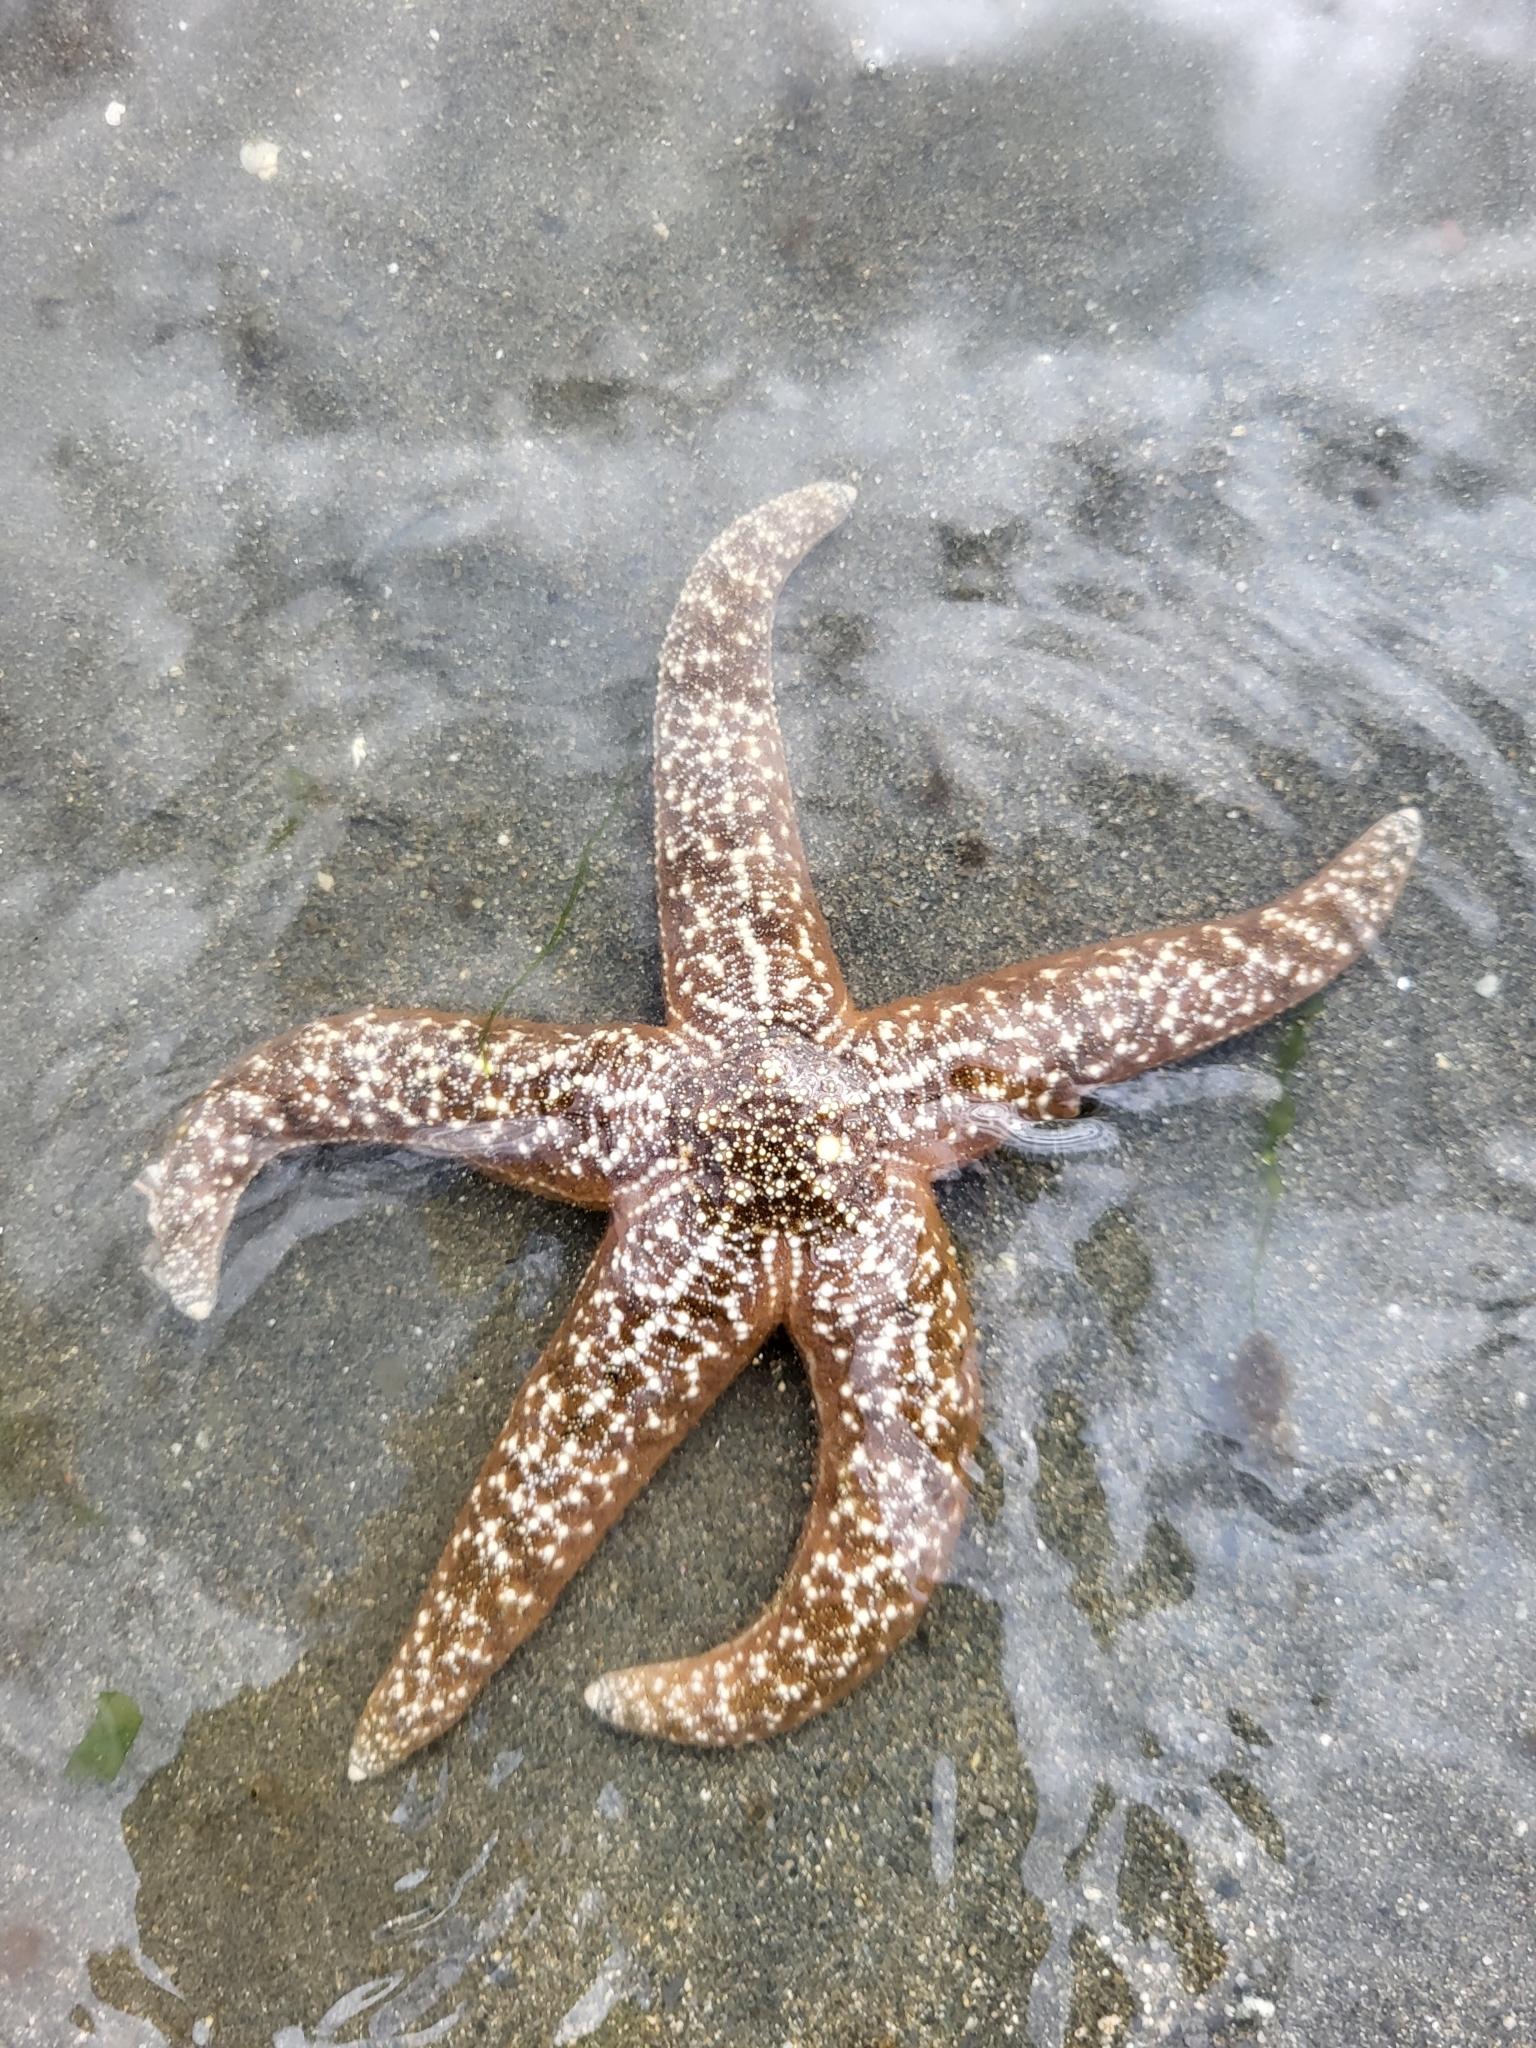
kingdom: Animalia
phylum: Echinodermata
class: Asteroidea
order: Forcipulatida
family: Asteriidae
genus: Evasterias
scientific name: Evasterias troschelii
